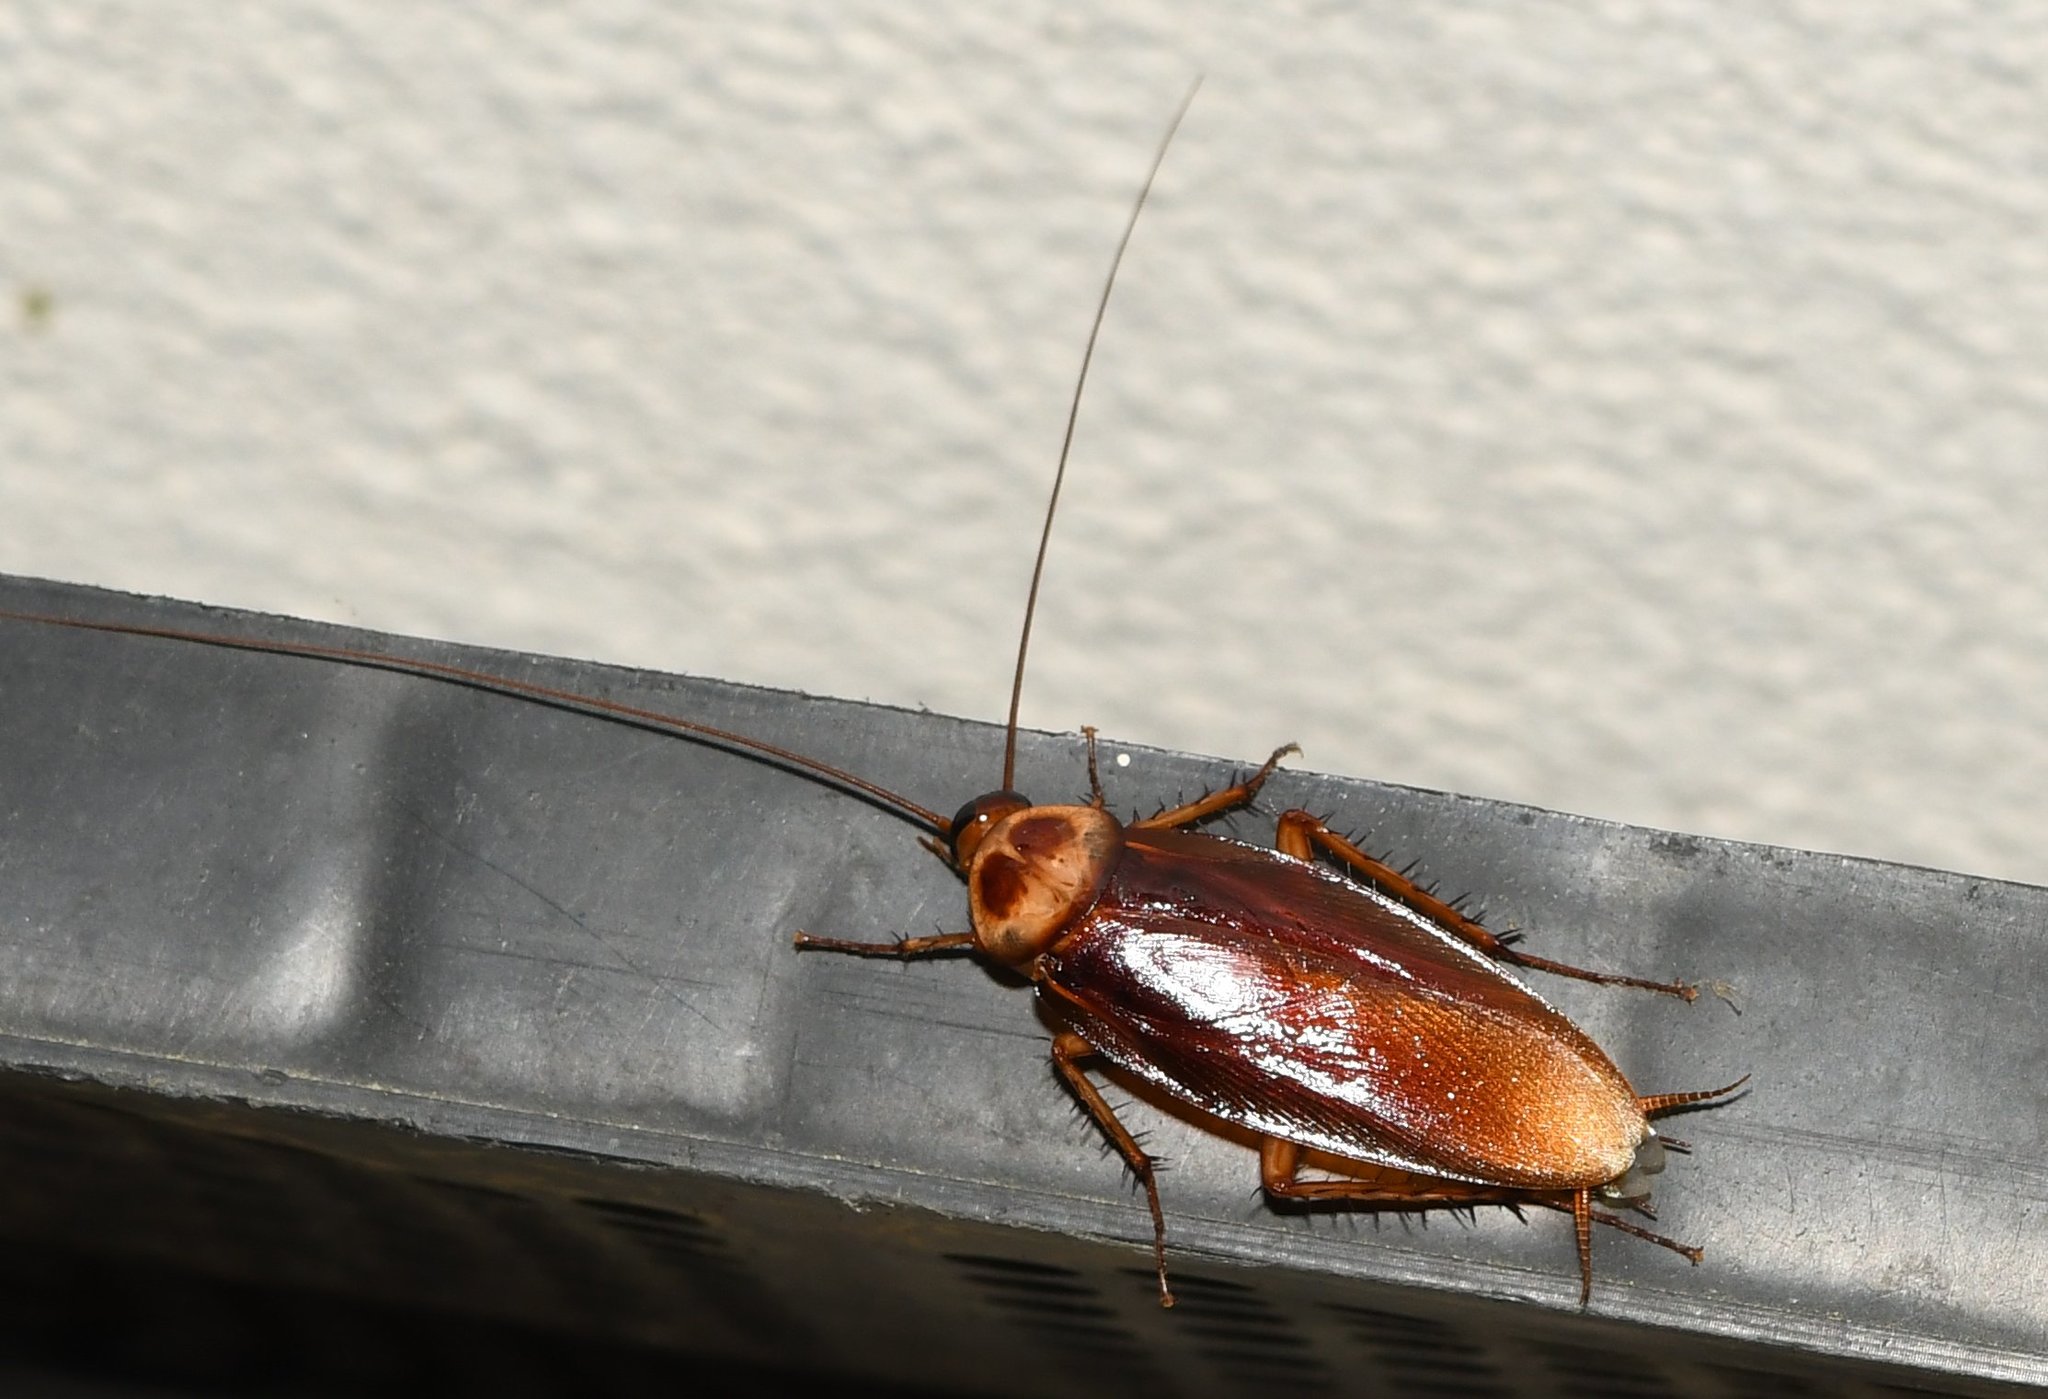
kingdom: Animalia
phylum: Arthropoda
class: Insecta
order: Blattodea
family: Blattidae
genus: Periplaneta
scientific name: Periplaneta americana
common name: American cockroach
